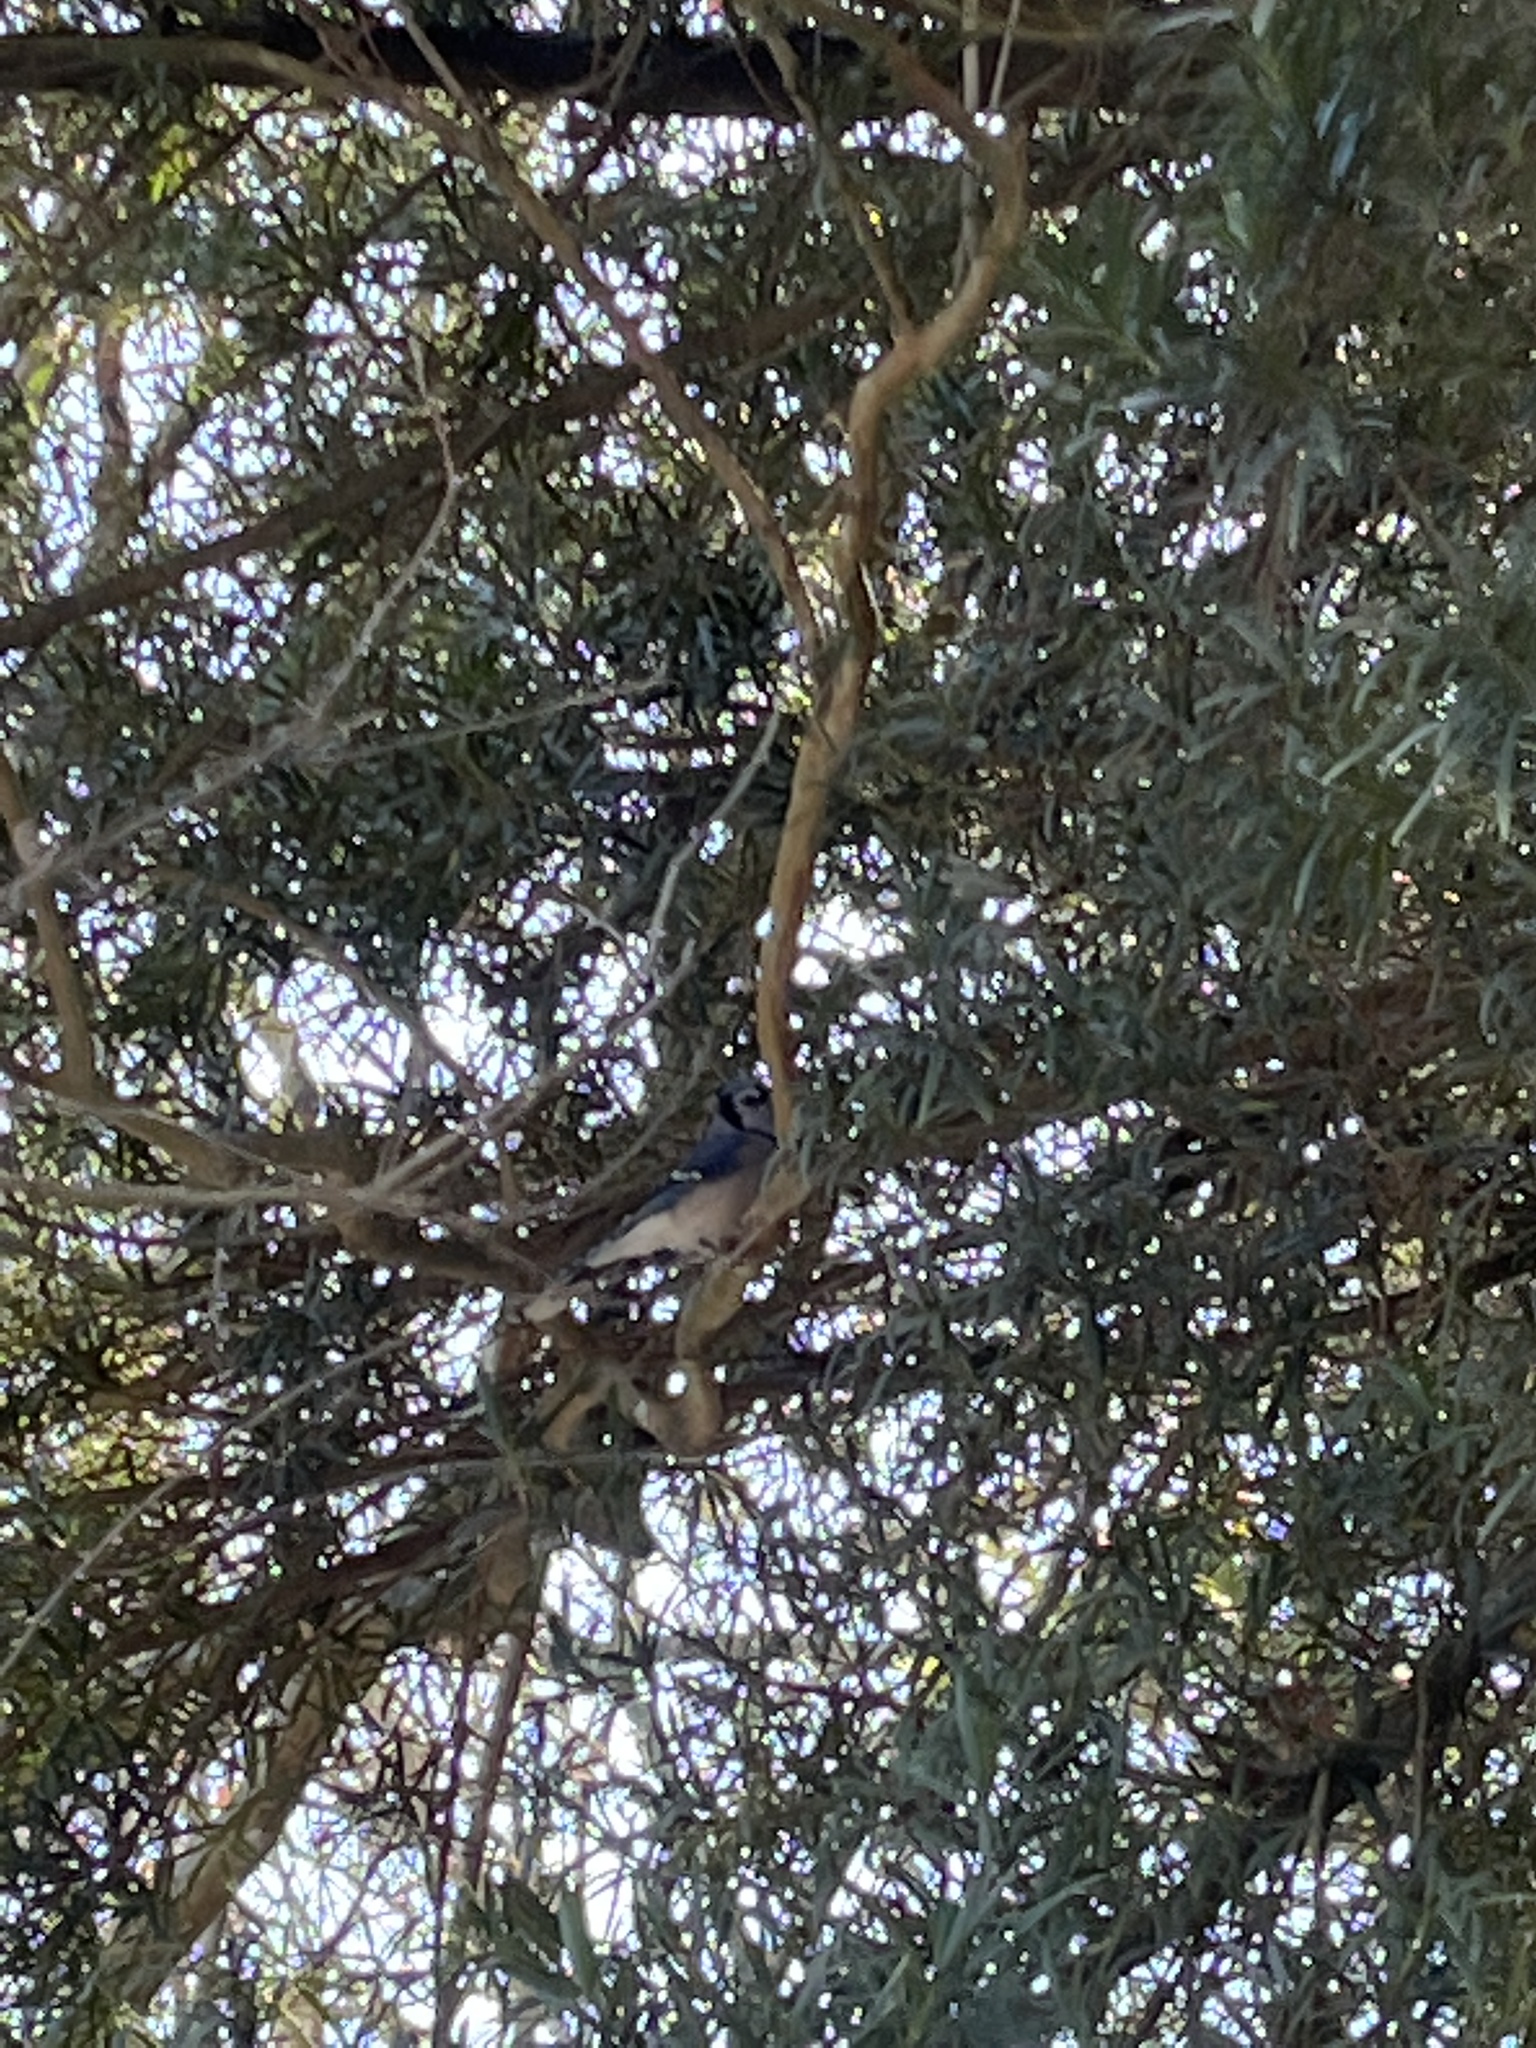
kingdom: Animalia
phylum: Chordata
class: Aves
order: Passeriformes
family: Corvidae
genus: Cyanocitta
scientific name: Cyanocitta cristata
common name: Blue jay
